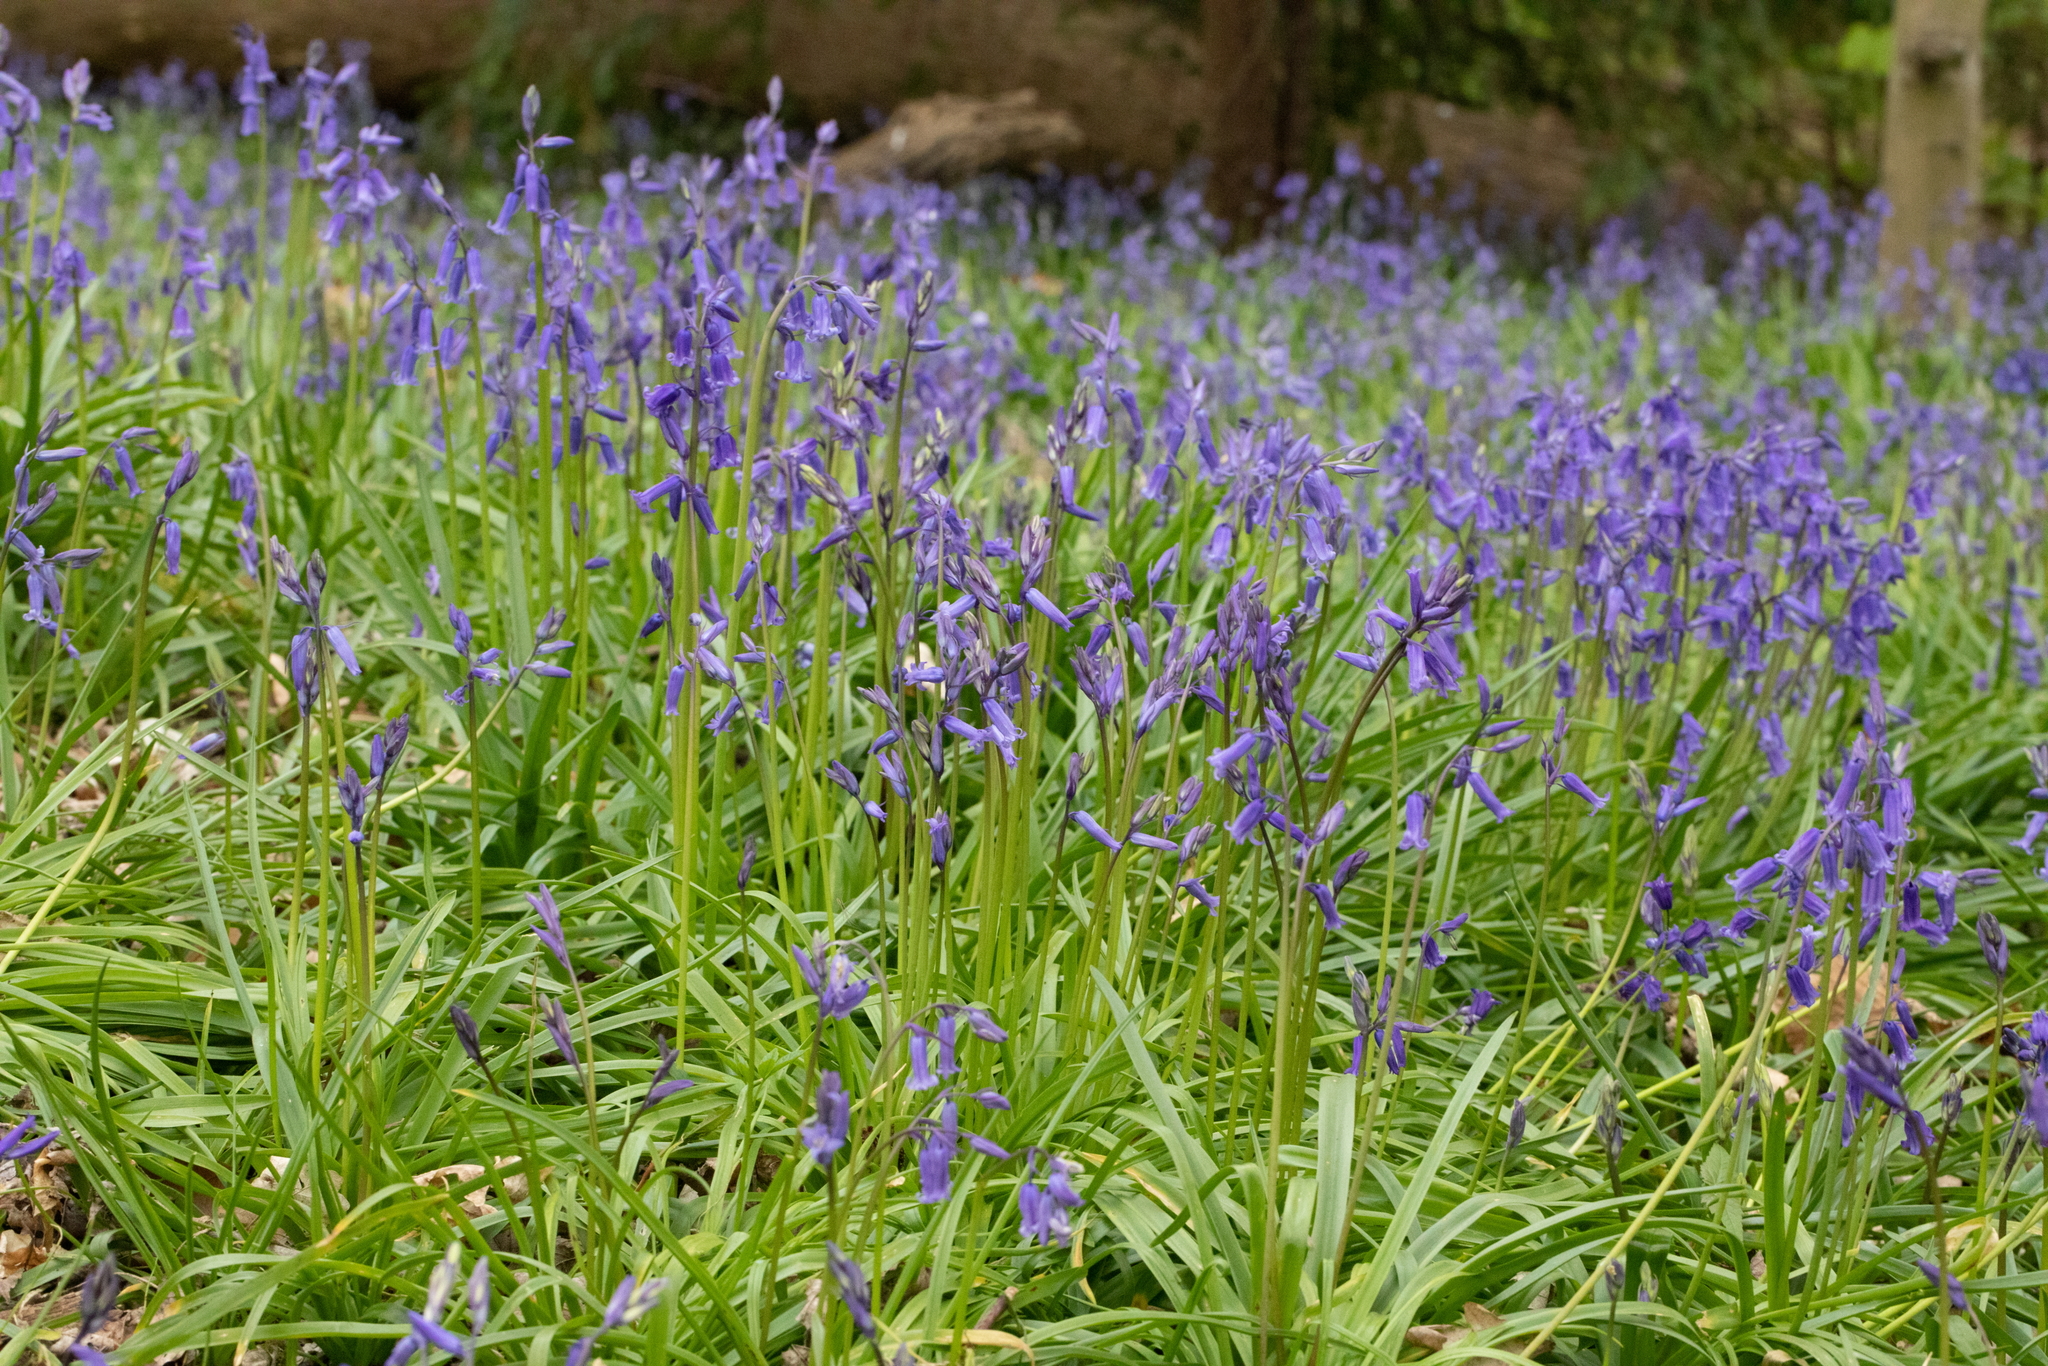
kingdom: Plantae
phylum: Tracheophyta
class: Liliopsida
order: Asparagales
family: Asparagaceae
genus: Hyacinthoides
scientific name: Hyacinthoides non-scripta
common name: Bluebell
